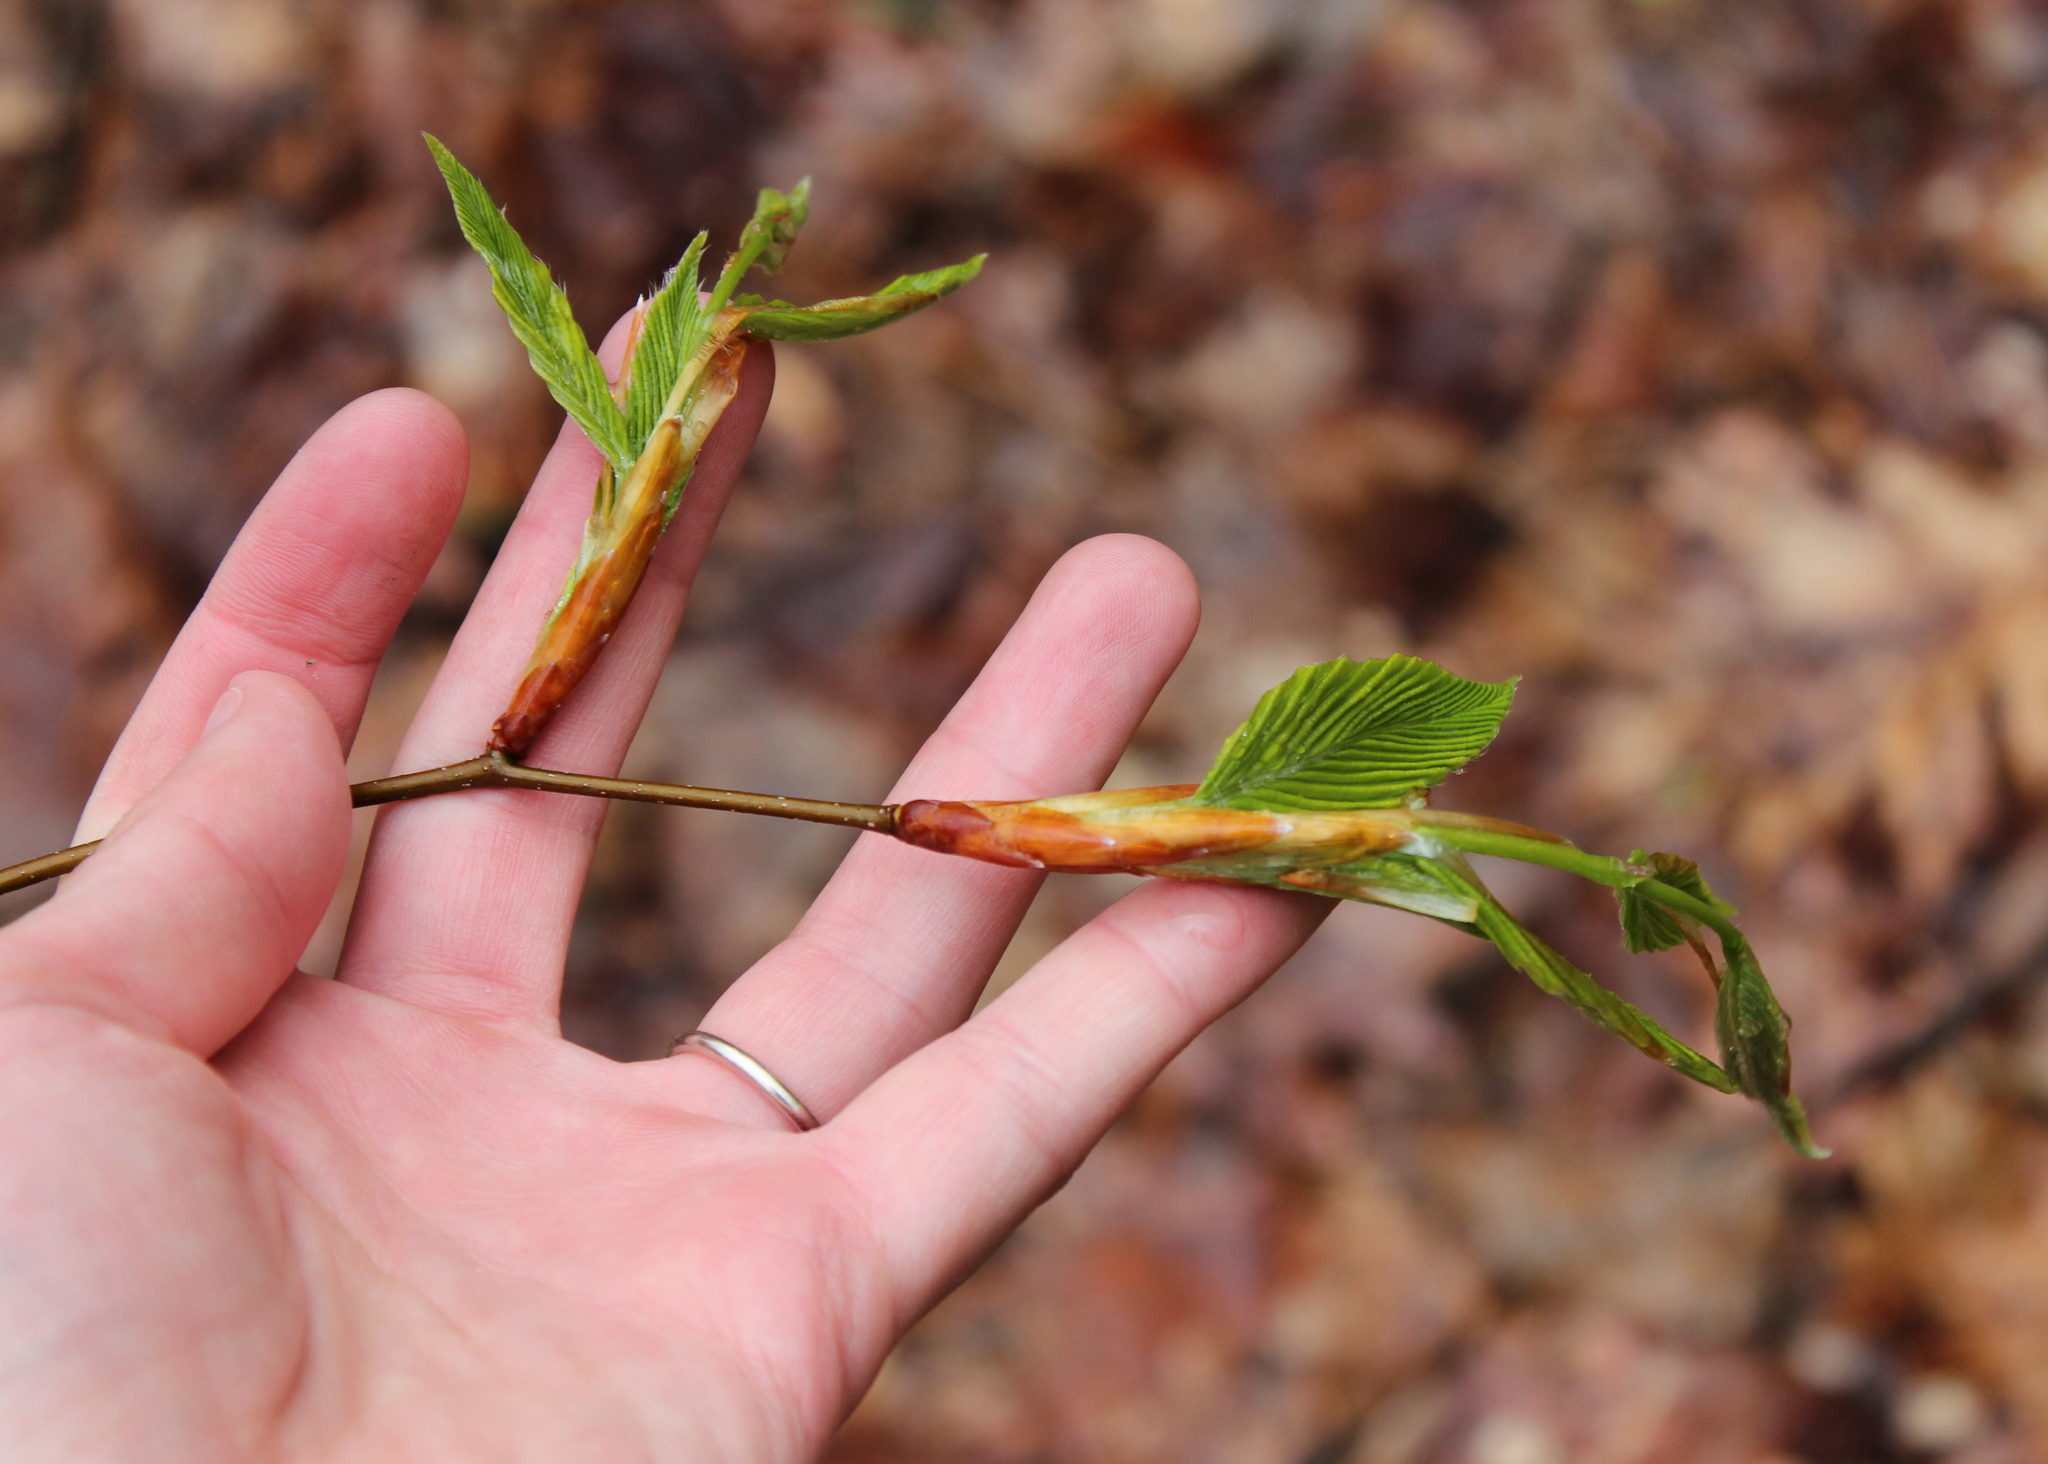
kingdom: Plantae
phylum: Tracheophyta
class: Magnoliopsida
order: Fagales
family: Fagaceae
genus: Fagus
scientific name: Fagus grandifolia
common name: American beech
